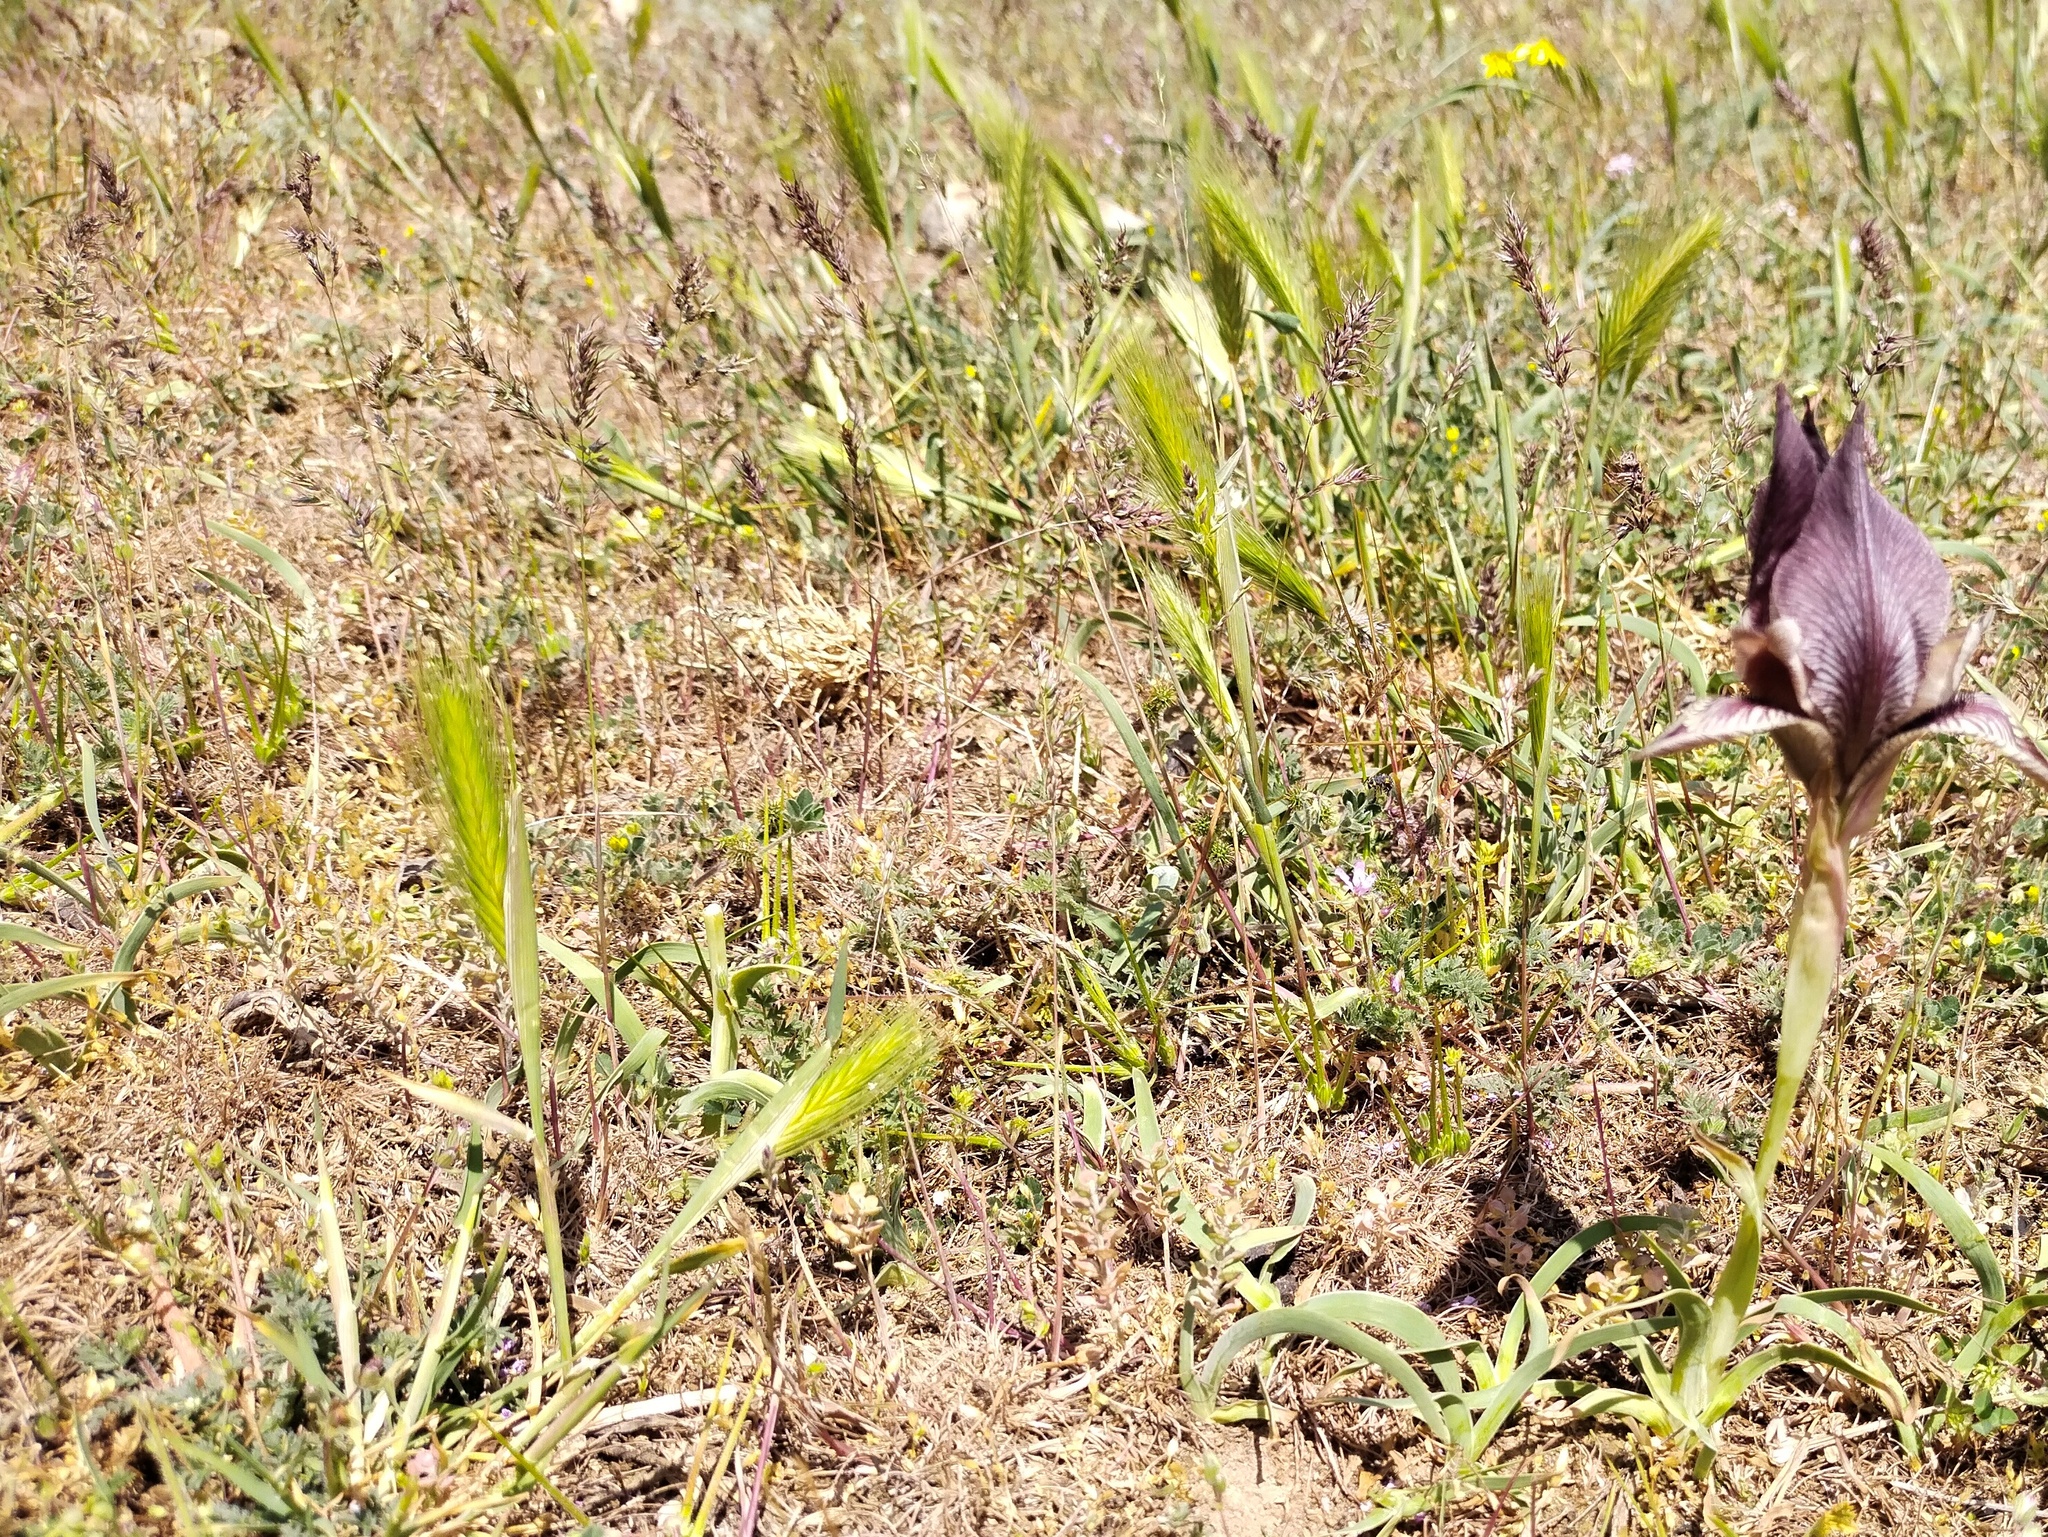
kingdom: Plantae
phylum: Tracheophyta
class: Liliopsida
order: Poales
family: Poaceae
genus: Hordeum
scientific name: Hordeum murinum
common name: Wall barley
